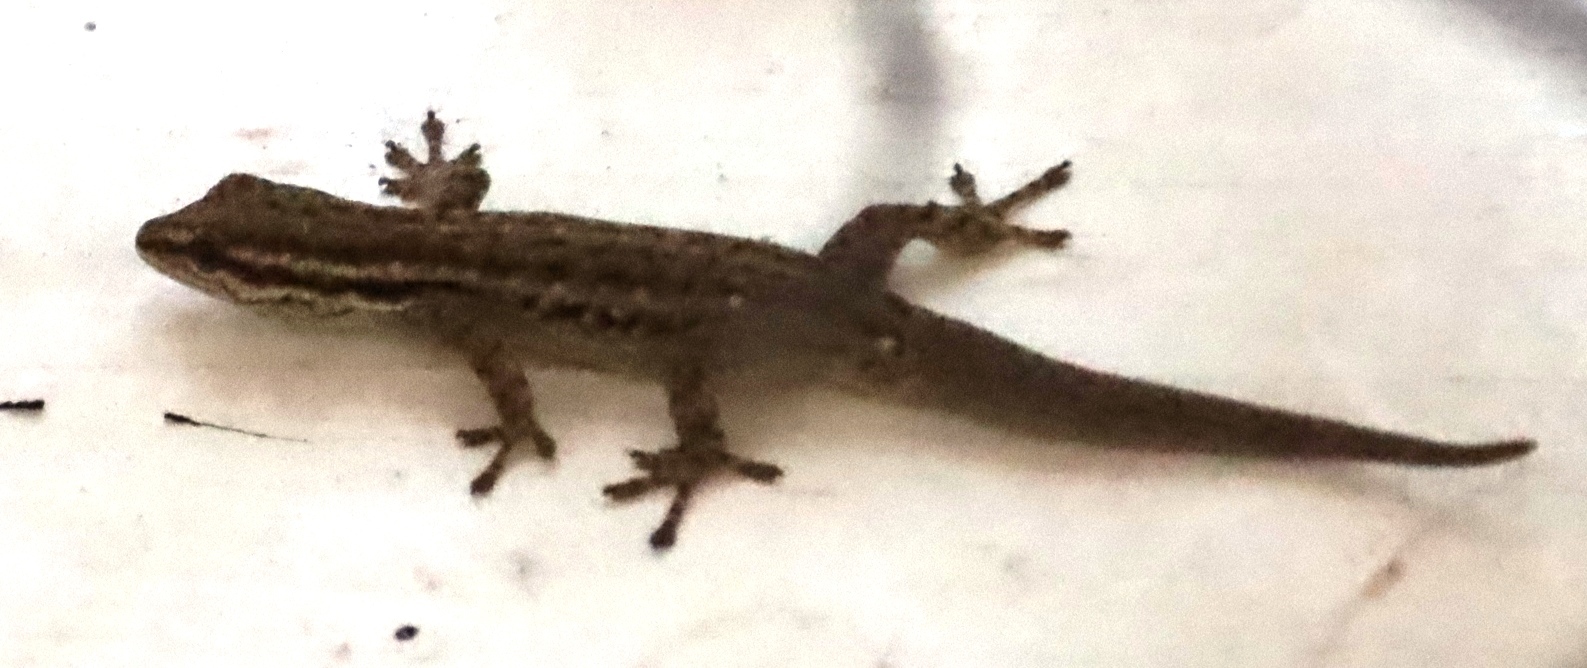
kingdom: Animalia
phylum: Chordata
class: Squamata
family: Gekkonidae
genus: Lygodactylus
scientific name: Lygodactylus capensis
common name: Cape dwarf gecko
